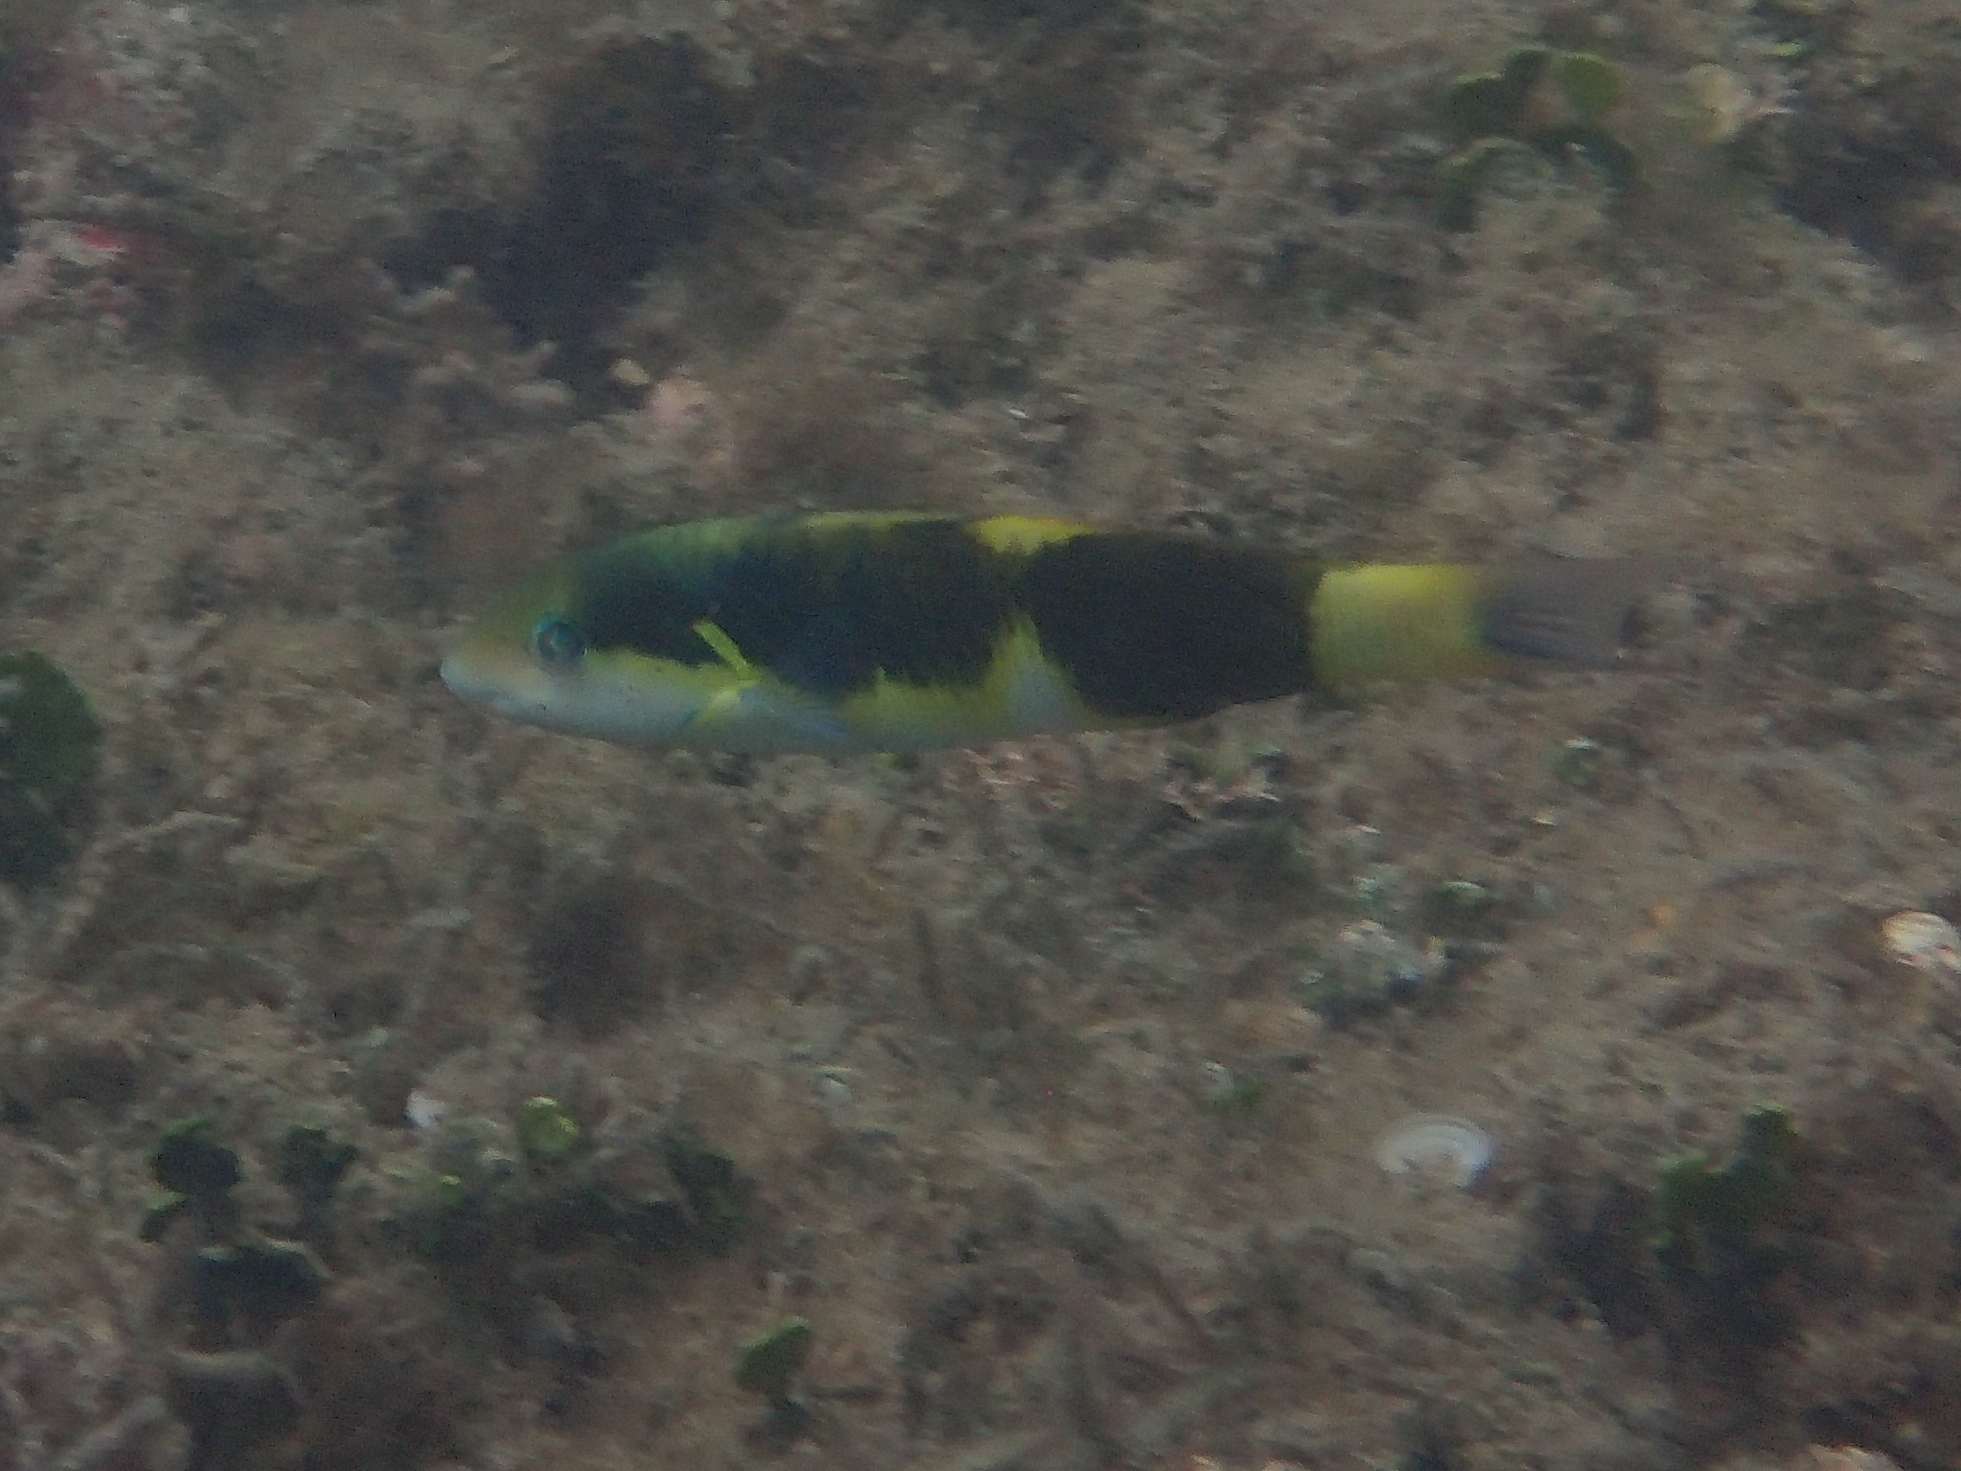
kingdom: Animalia
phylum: Chordata
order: Perciformes
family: Labridae
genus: Thalassoma
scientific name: Thalassoma nigrofasciatum
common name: Black-barred wrasse
